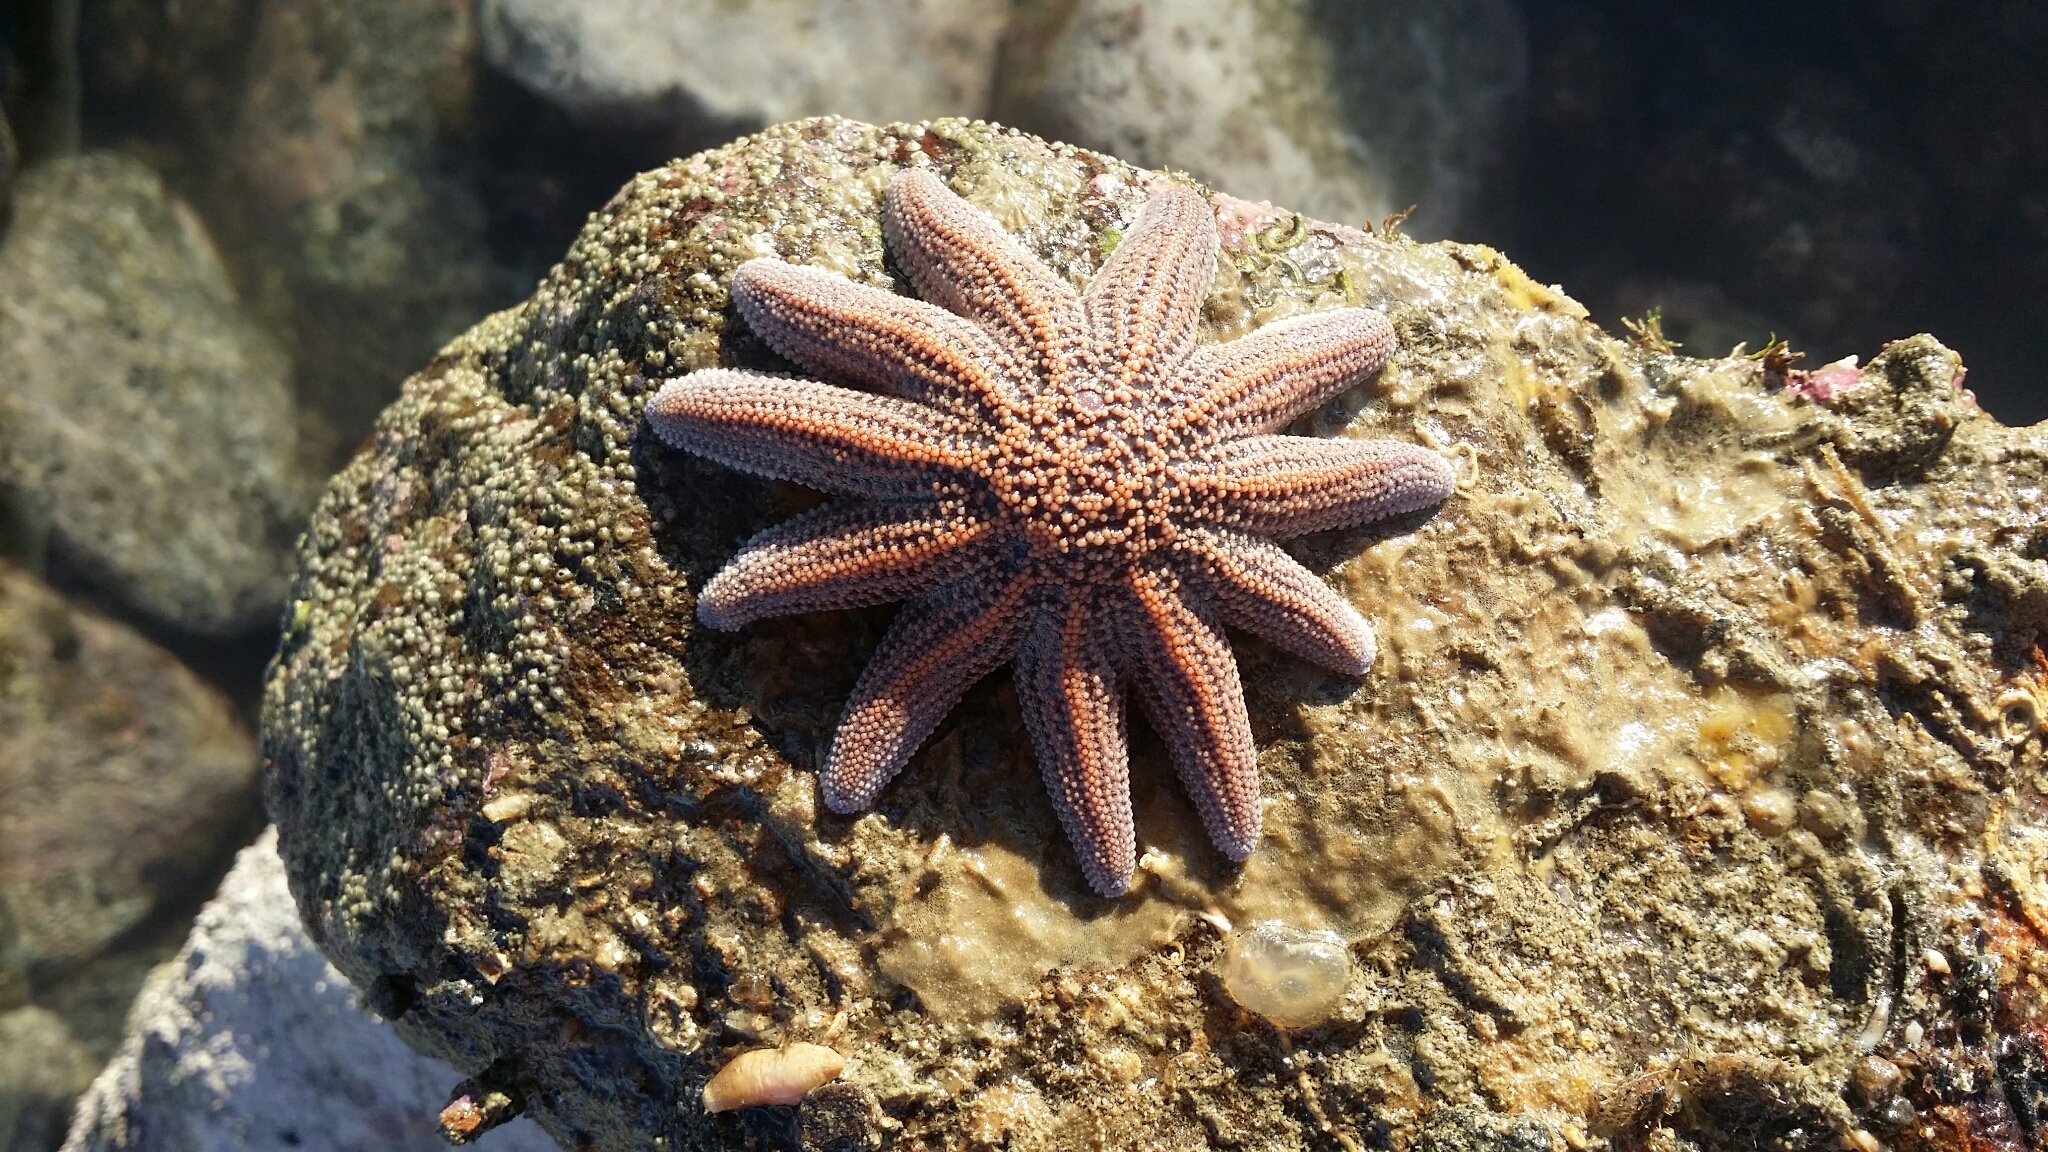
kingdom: Animalia
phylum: Echinodermata
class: Asteroidea
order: Forcipulatida
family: Stichasteridae
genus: Stichaster
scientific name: Stichaster australis
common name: Reef starfish
